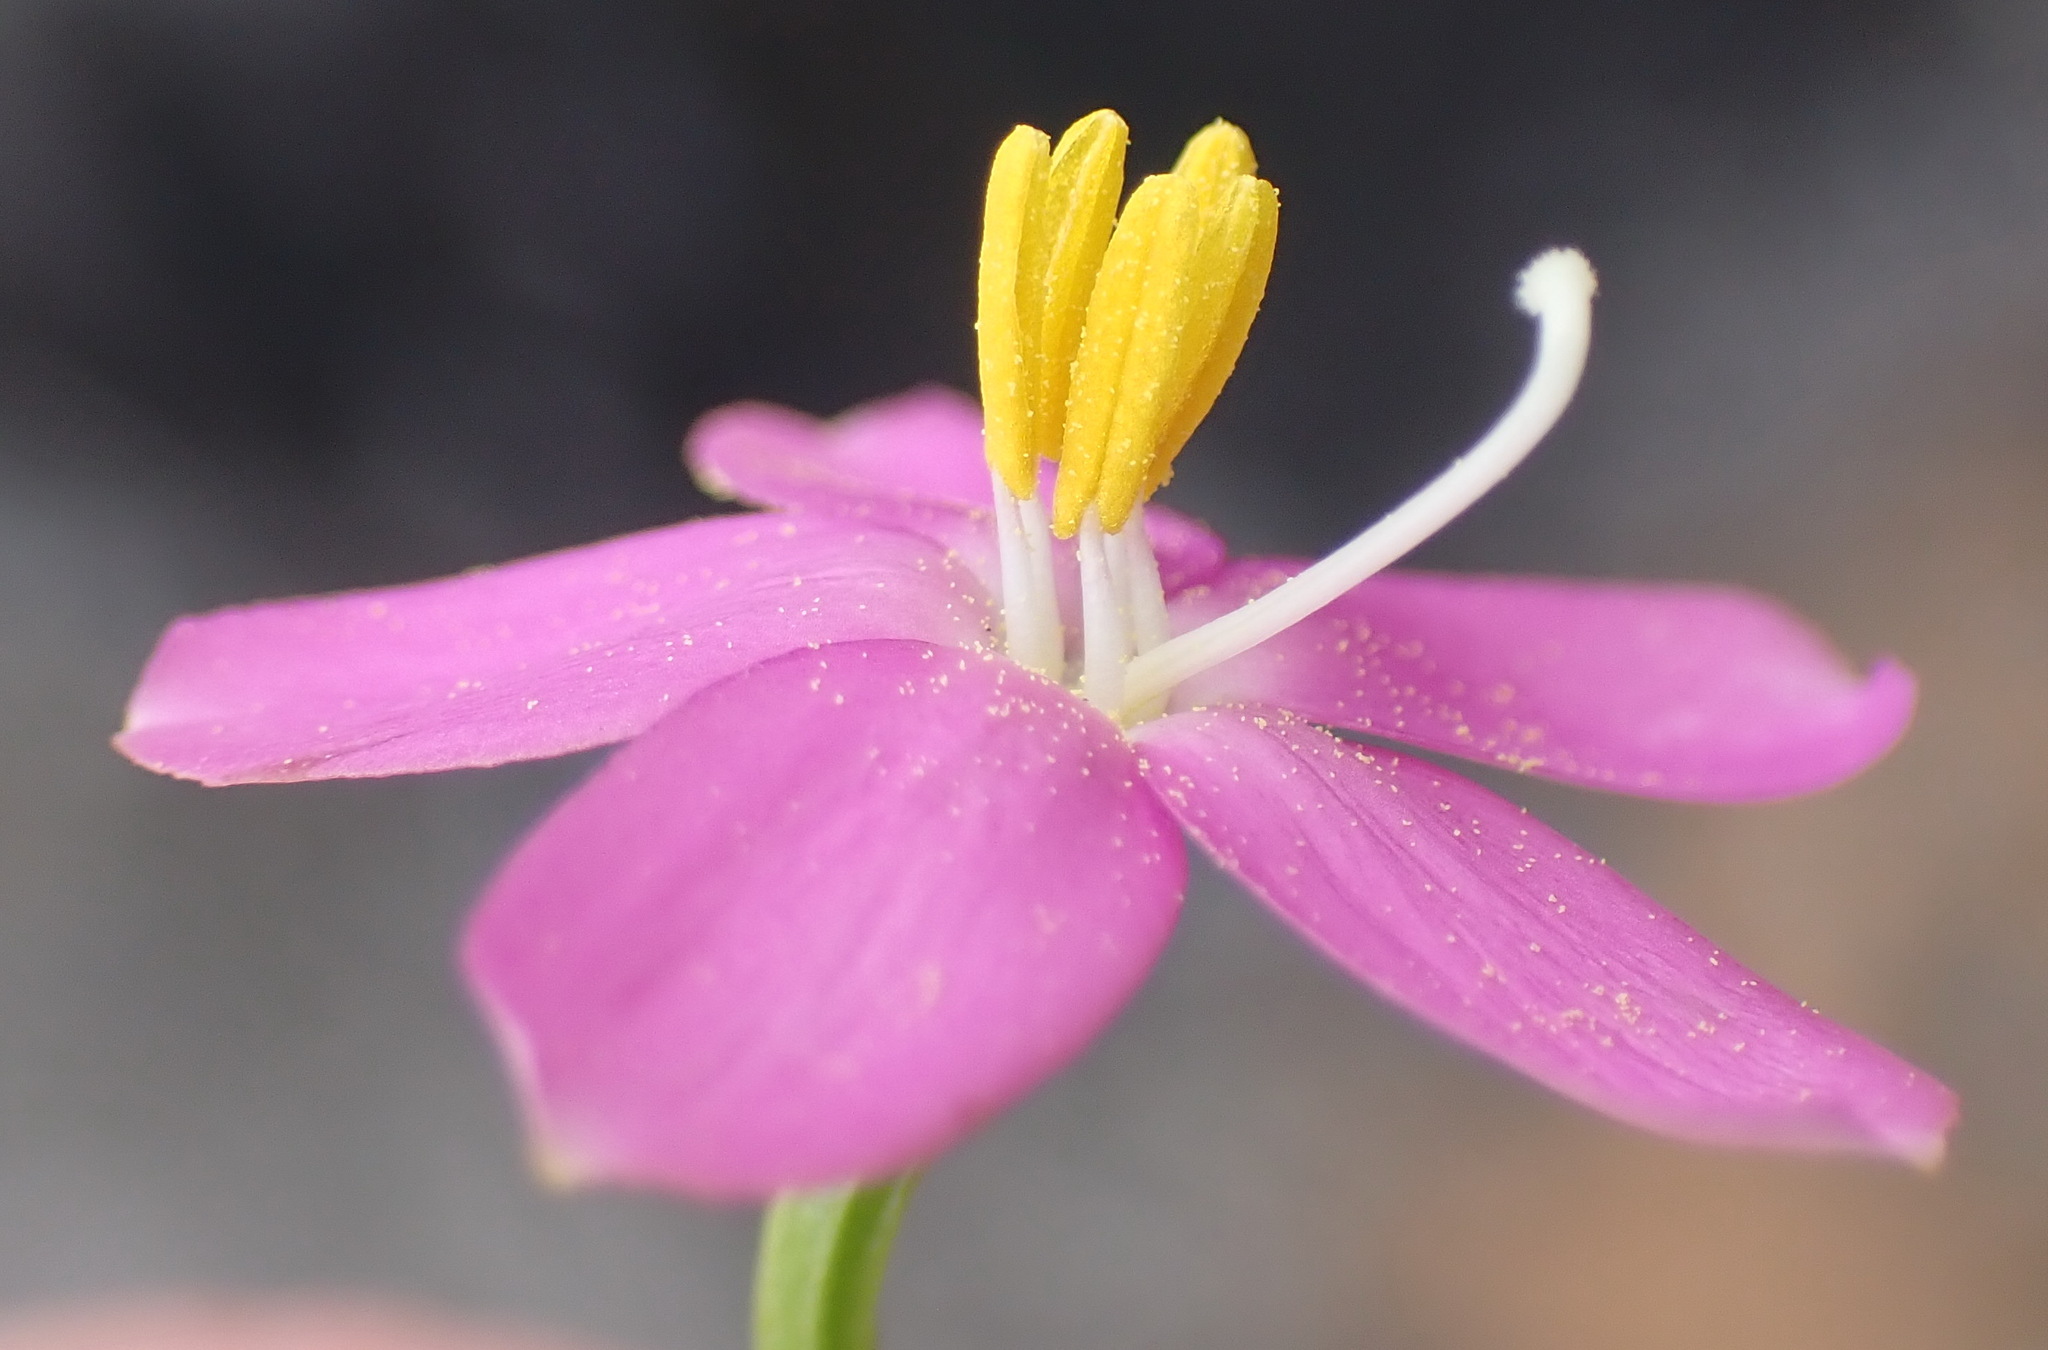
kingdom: Plantae
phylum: Tracheophyta
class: Magnoliopsida
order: Gentianales
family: Gentianaceae
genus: Chironia
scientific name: Chironia baccifera
